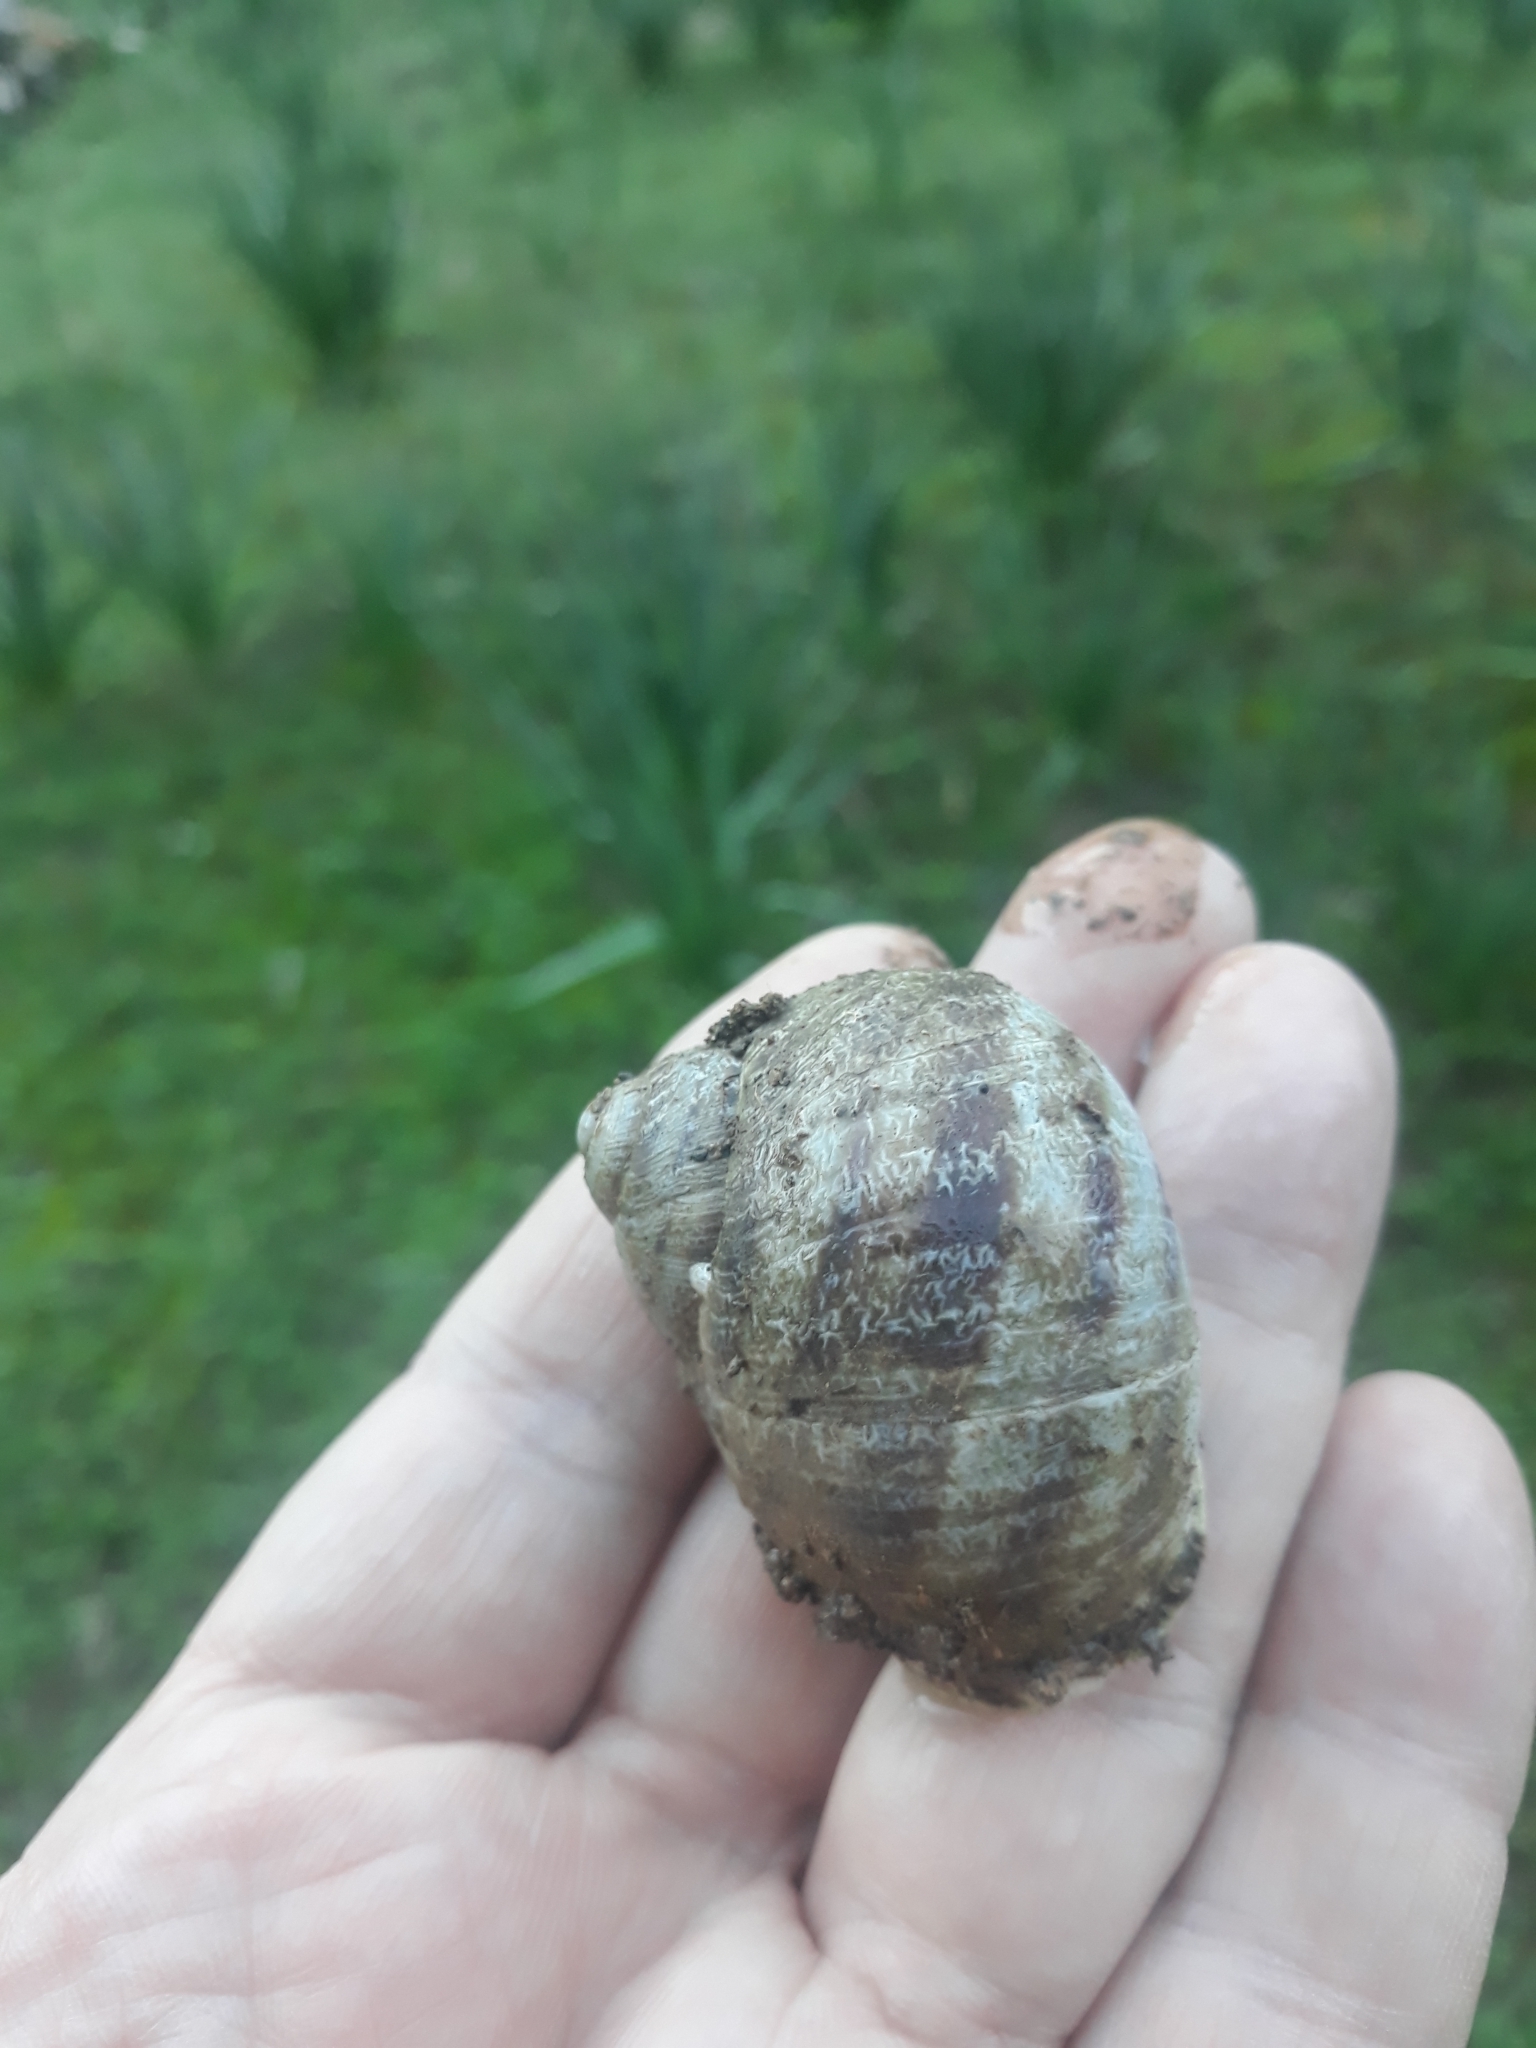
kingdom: Animalia
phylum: Mollusca
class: Gastropoda
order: Stylommatophora
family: Helicidae
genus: Cornu
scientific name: Cornu aspersum
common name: Brown garden snail
